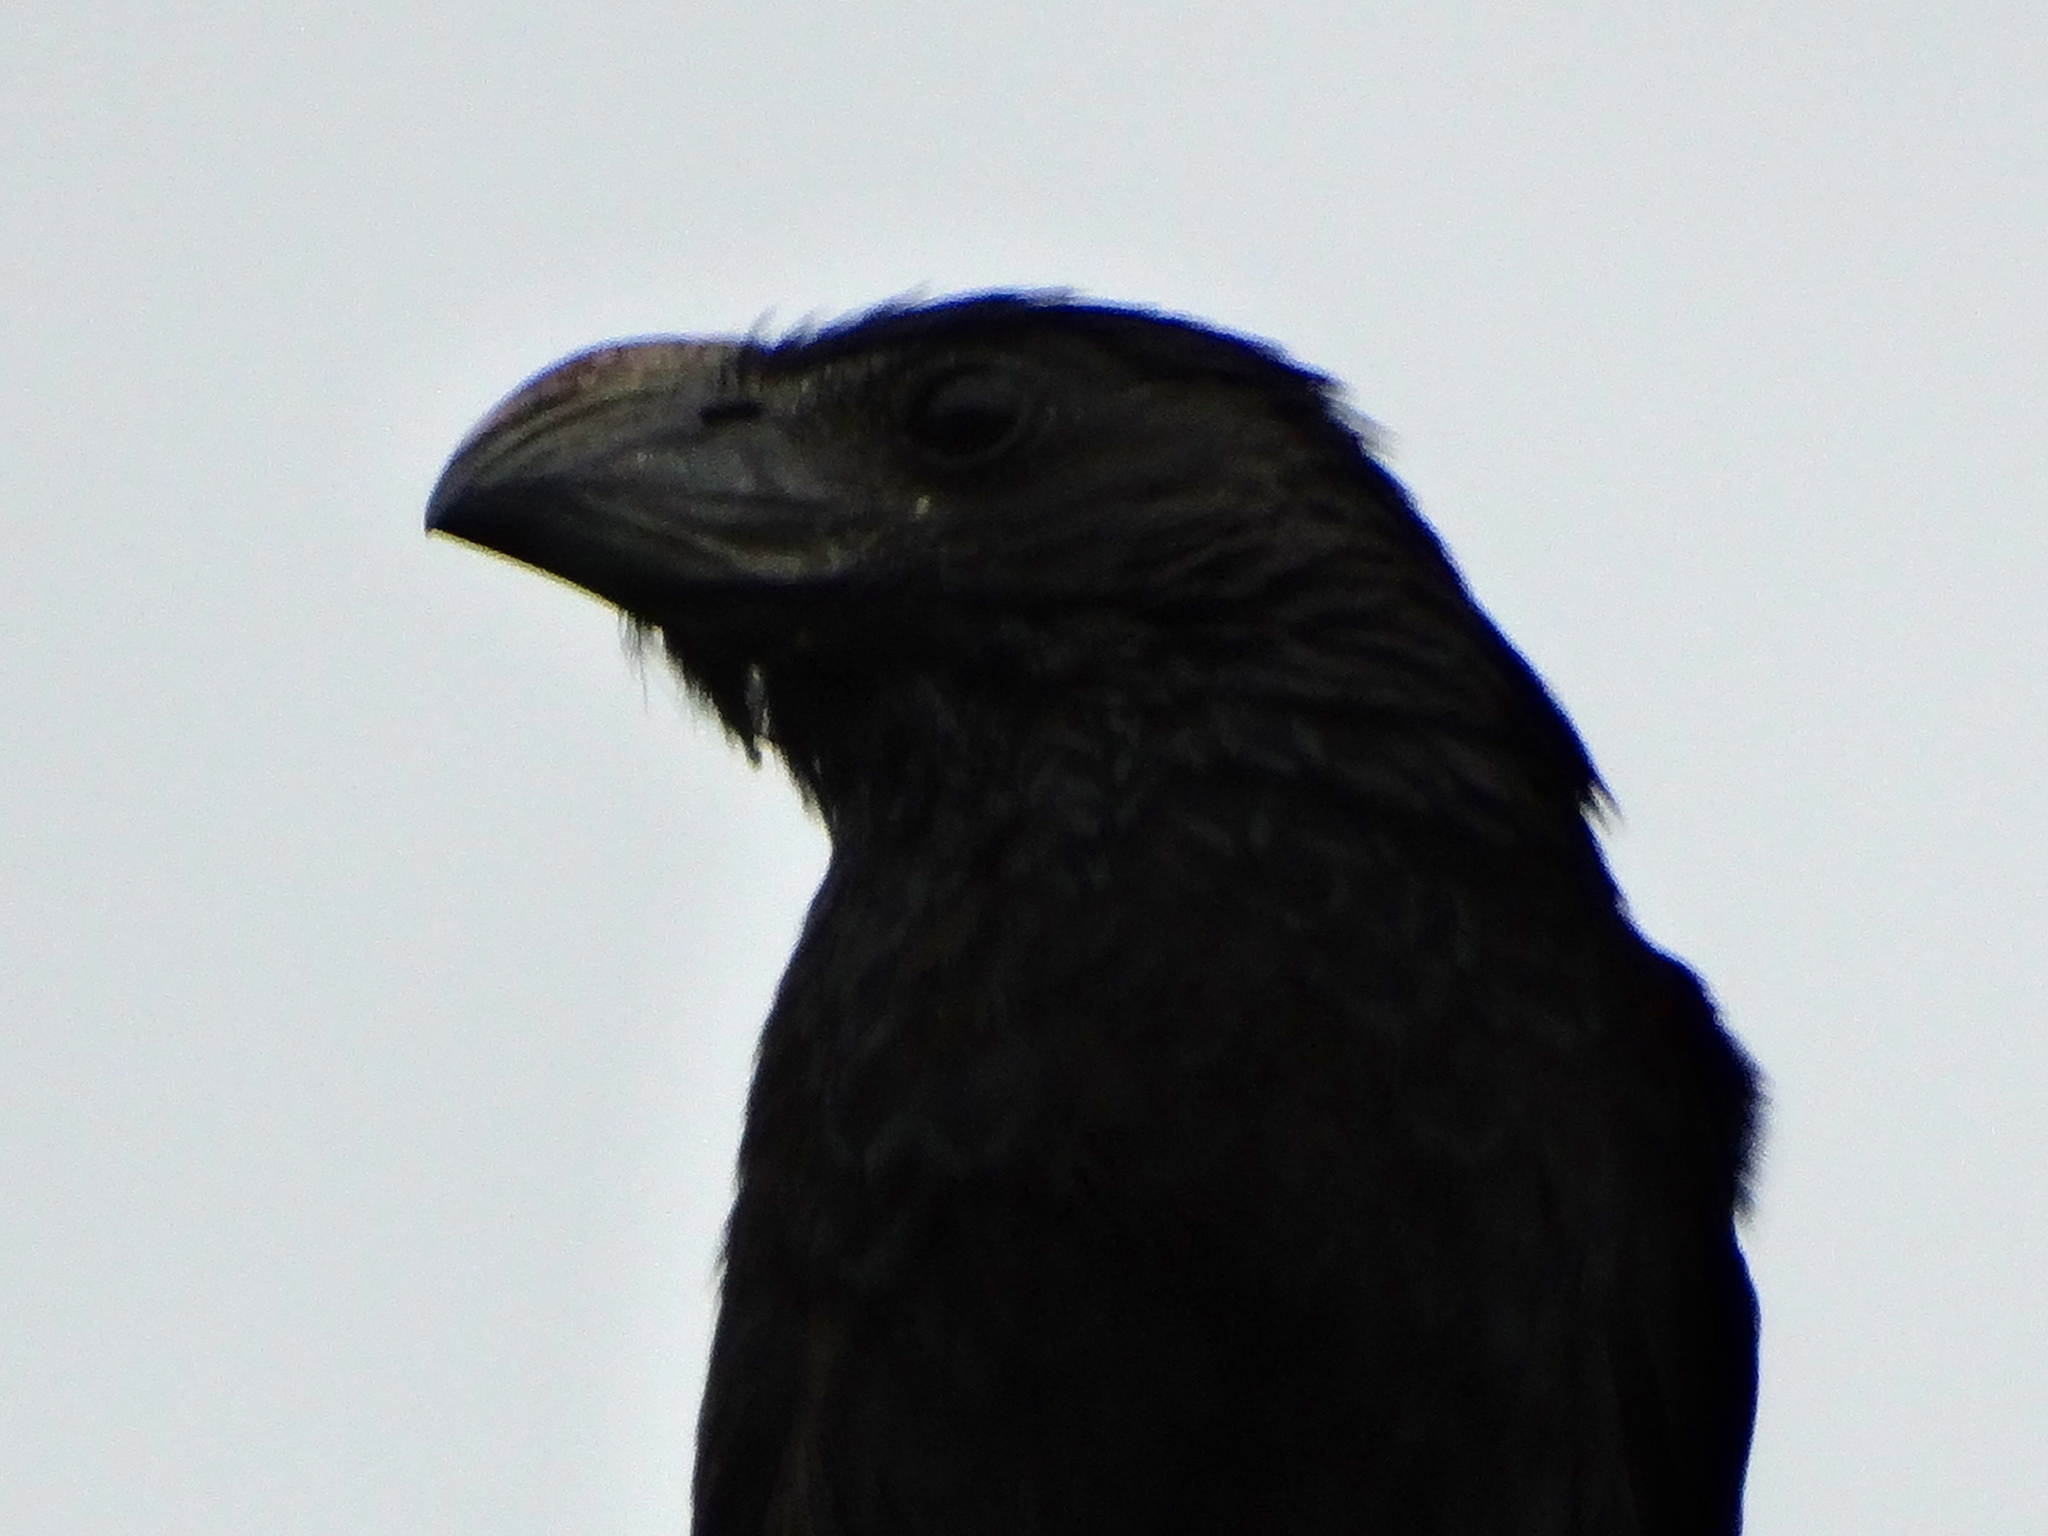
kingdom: Animalia
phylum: Chordata
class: Aves
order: Cuculiformes
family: Cuculidae
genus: Crotophaga
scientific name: Crotophaga sulcirostris
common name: Groove-billed ani
